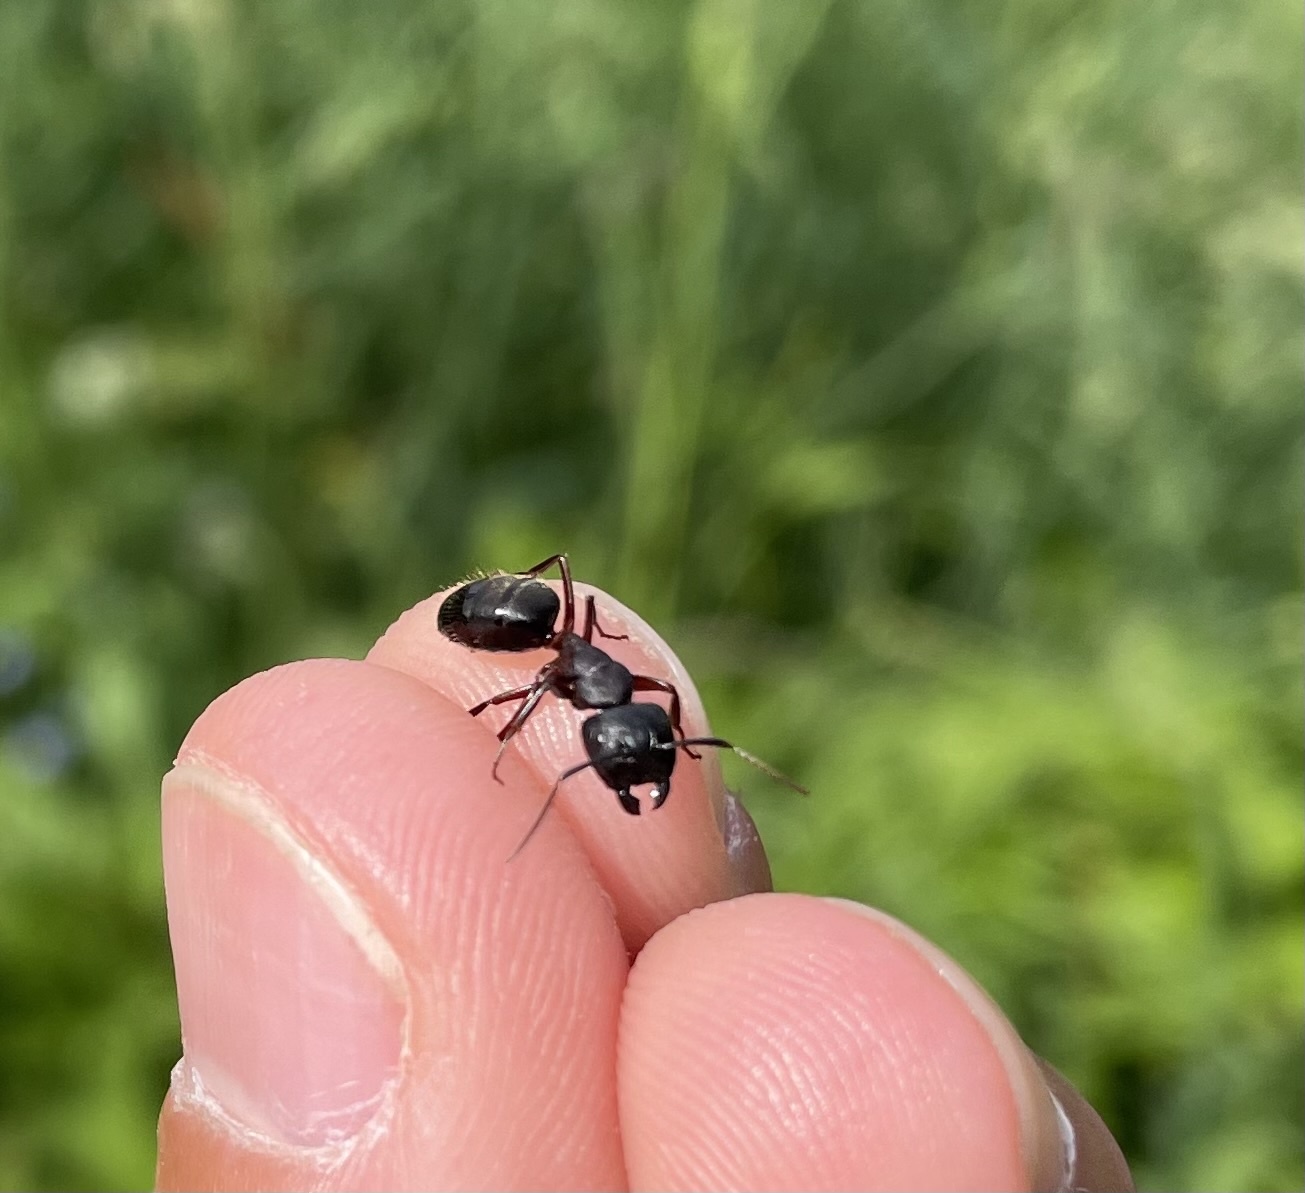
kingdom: Animalia
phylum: Arthropoda
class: Insecta
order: Hymenoptera
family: Formicidae
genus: Camponotus
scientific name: Camponotus herculeanus
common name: Hercules ant
